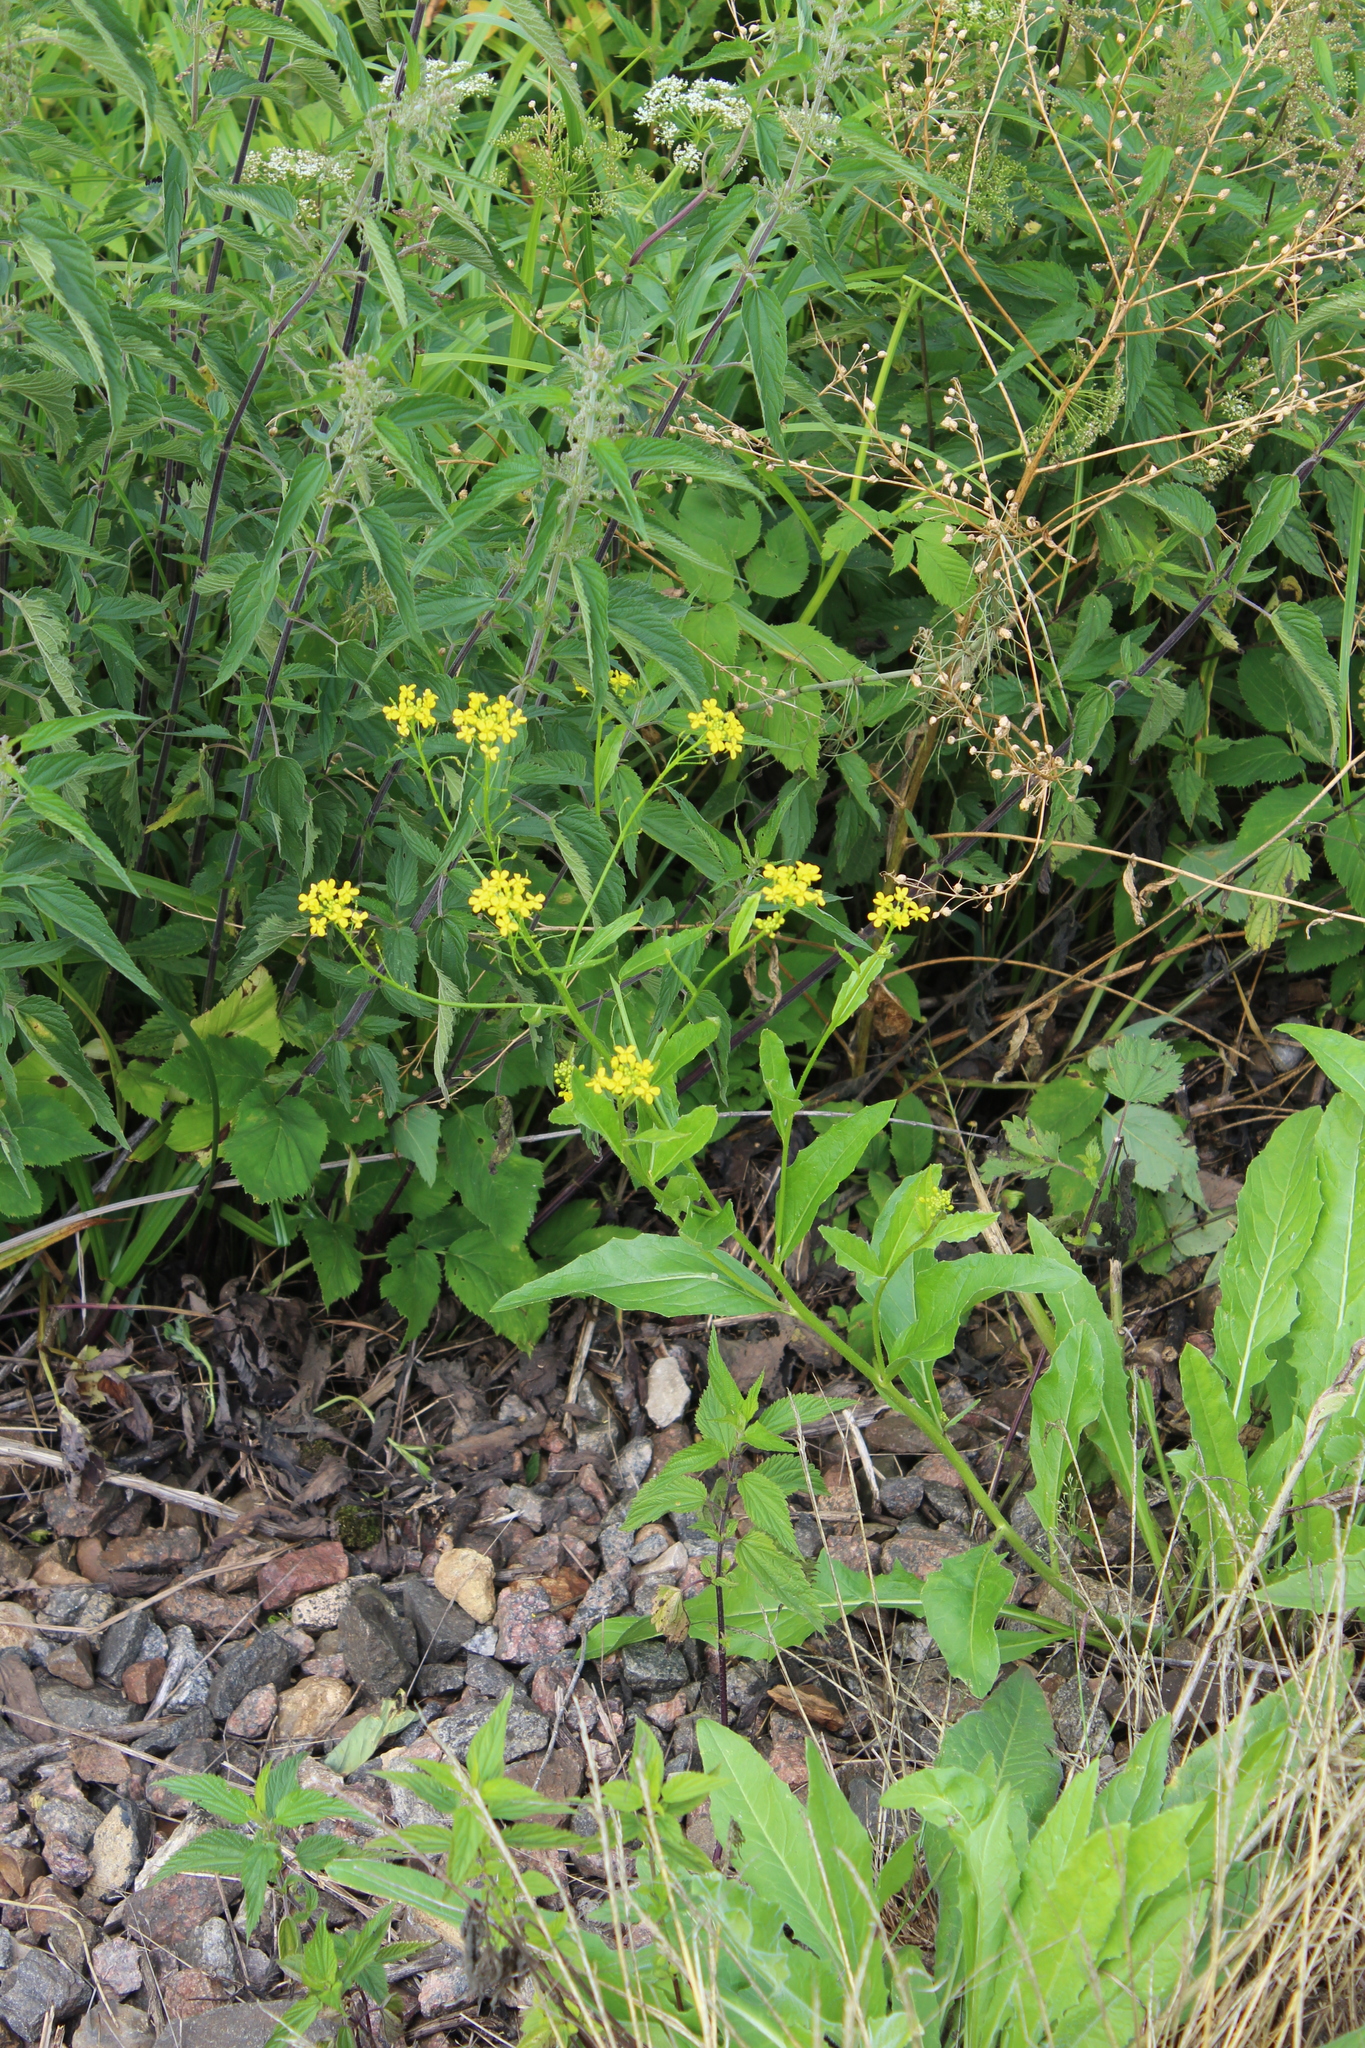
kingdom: Plantae
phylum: Tracheophyta
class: Magnoliopsida
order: Brassicales
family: Brassicaceae
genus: Bunias
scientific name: Bunias orientalis
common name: Warty-cabbage
